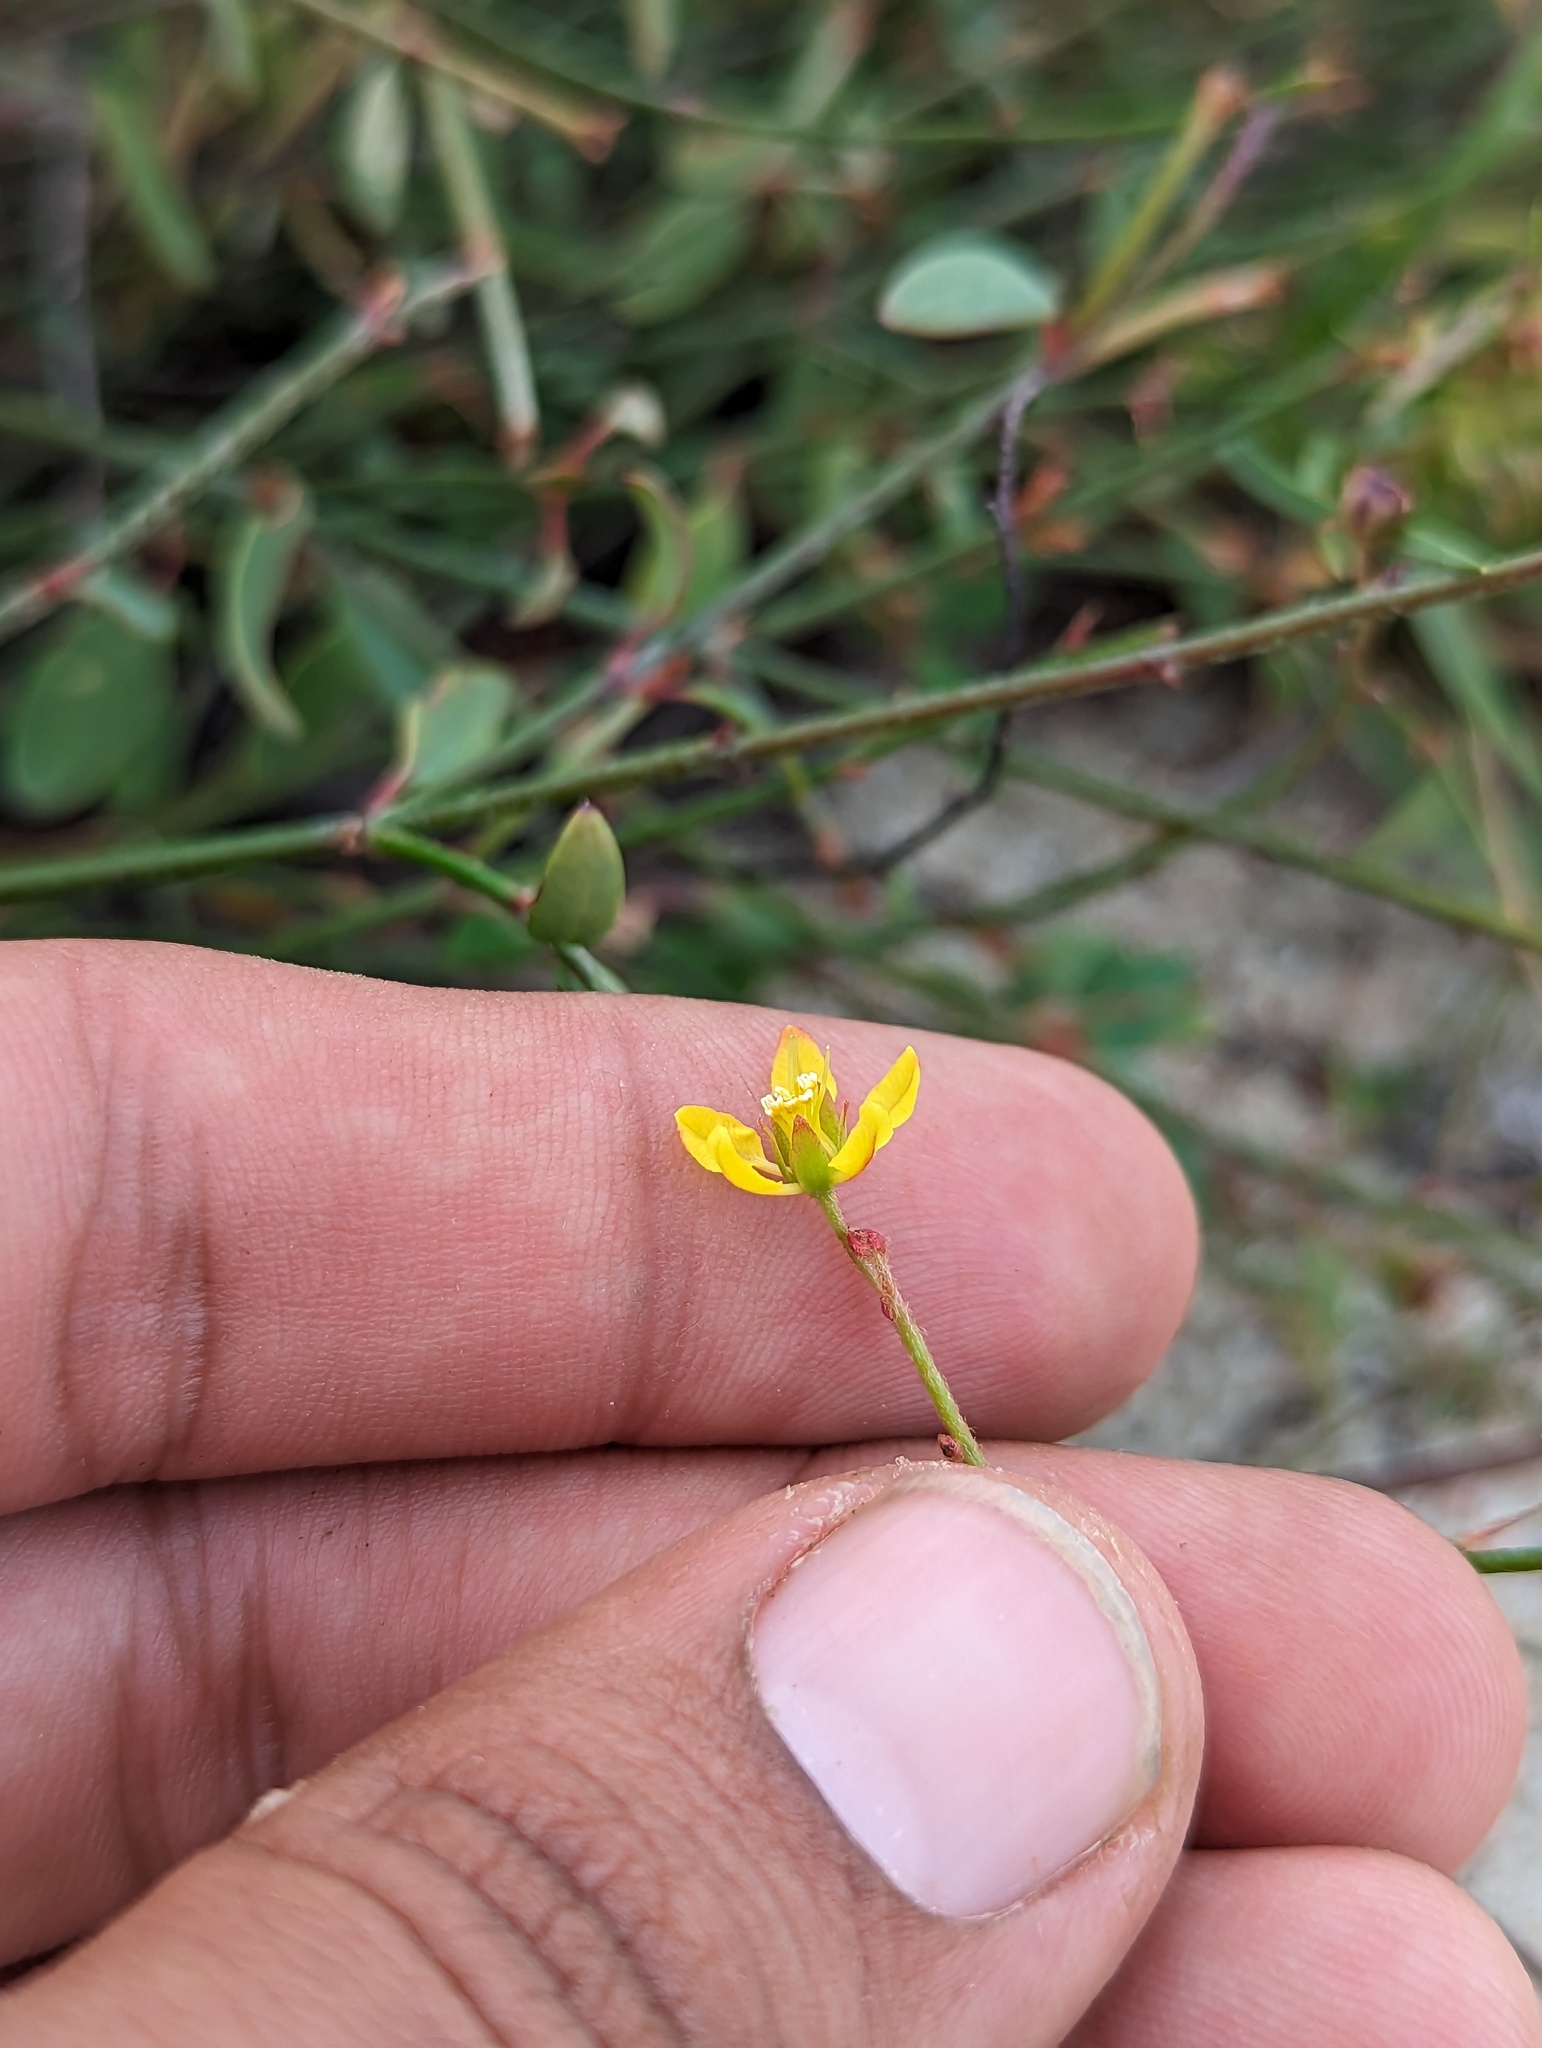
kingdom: Plantae
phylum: Tracheophyta
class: Magnoliopsida
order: Malpighiales
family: Malpighiaceae
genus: Galphimia
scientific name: Galphimia angustifolia
